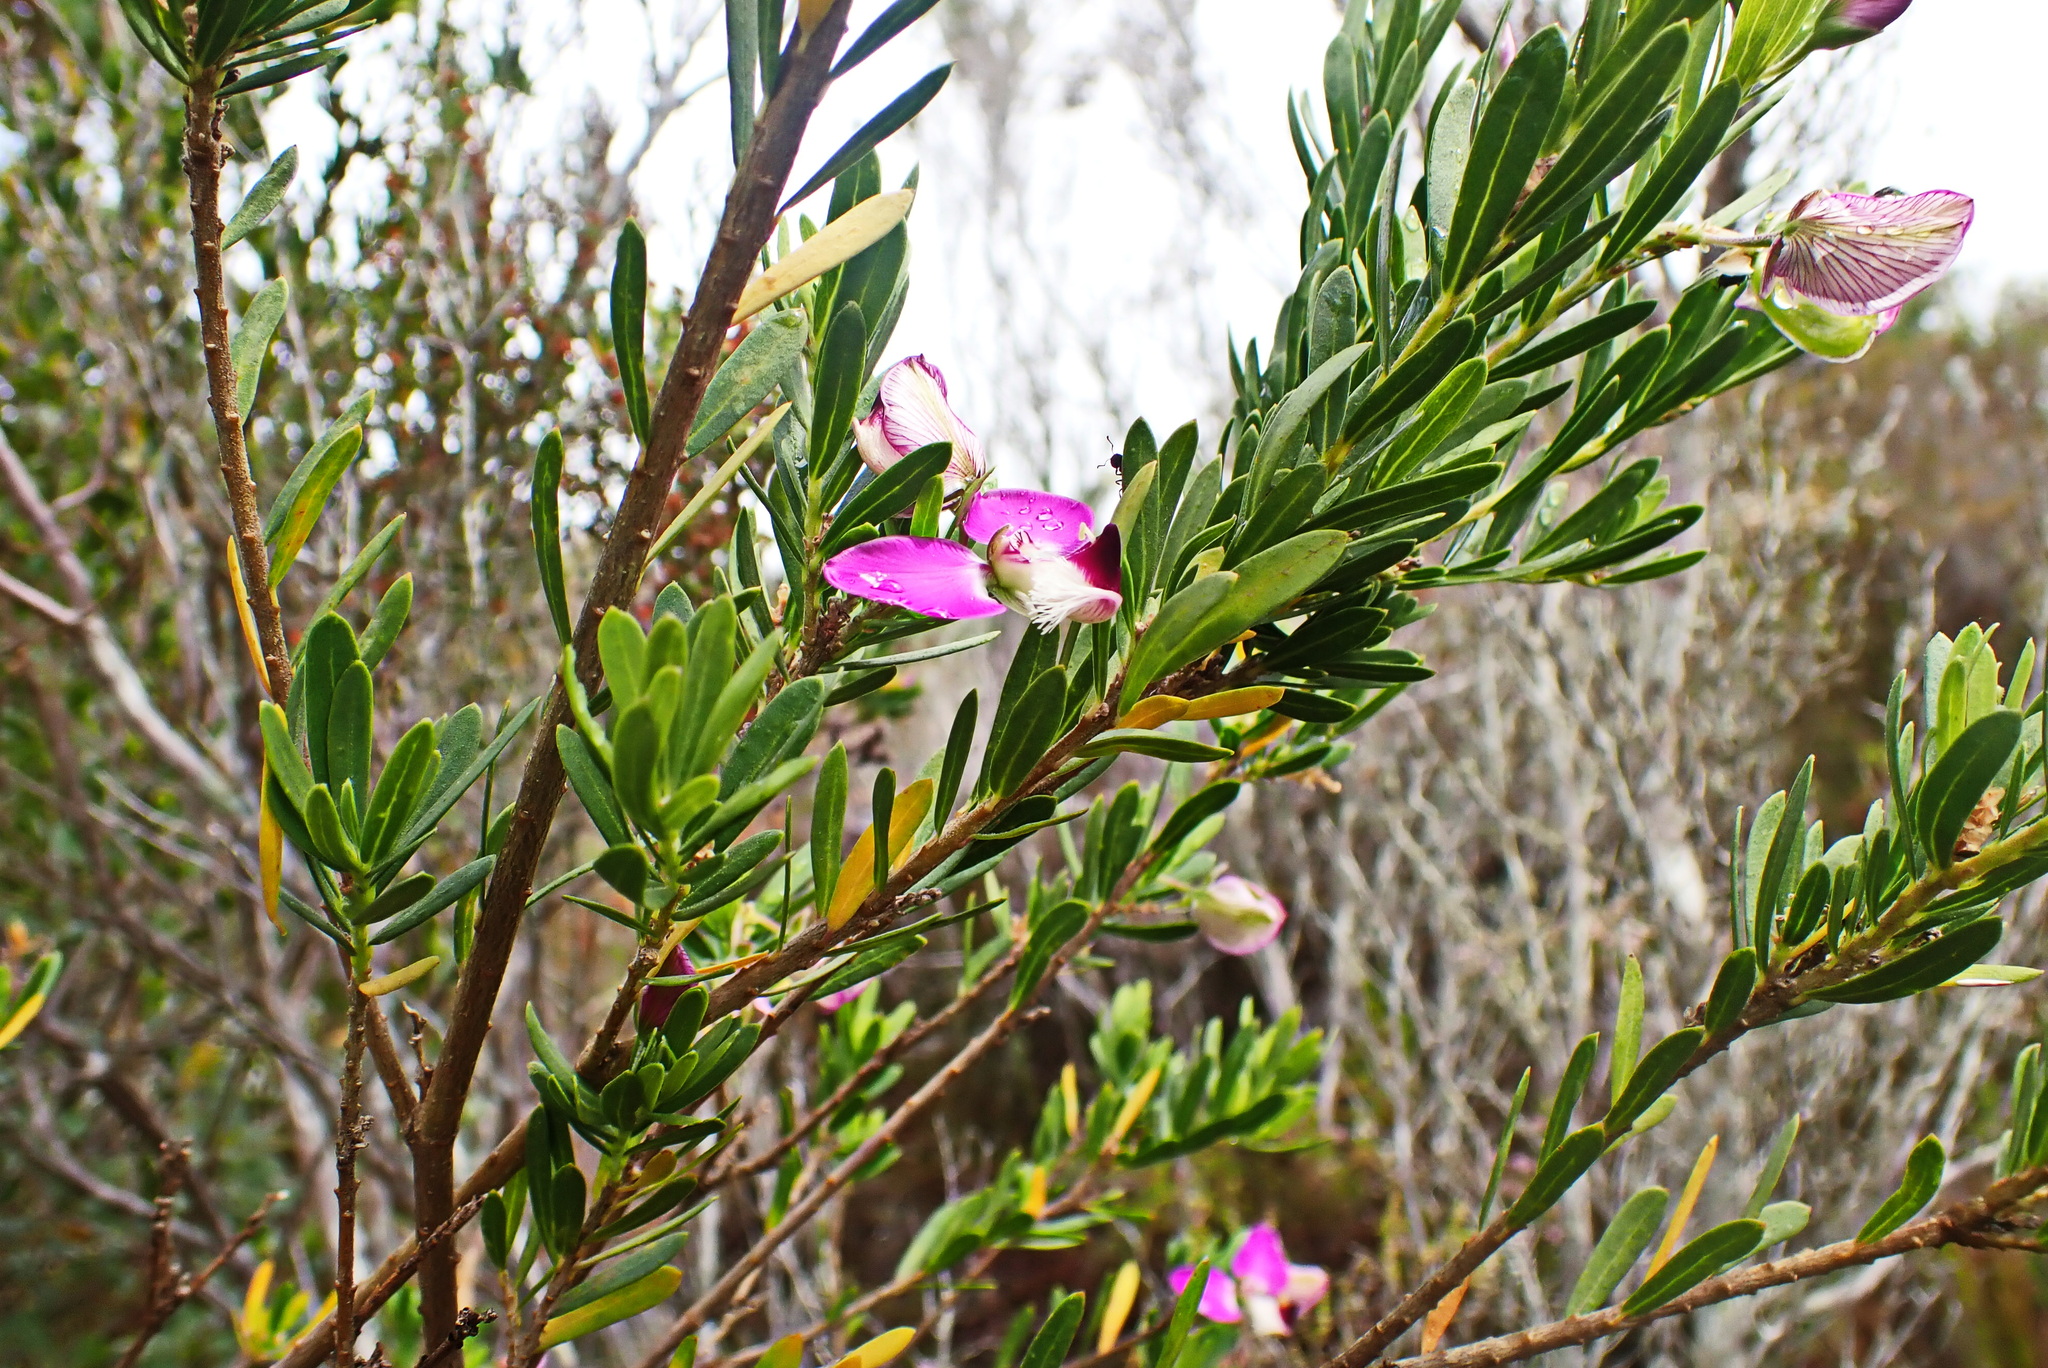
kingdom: Plantae
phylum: Tracheophyta
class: Magnoliopsida
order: Fabales
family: Polygalaceae
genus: Polygala
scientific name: Polygala myrtifolia
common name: Myrtle-leaf milkwort
